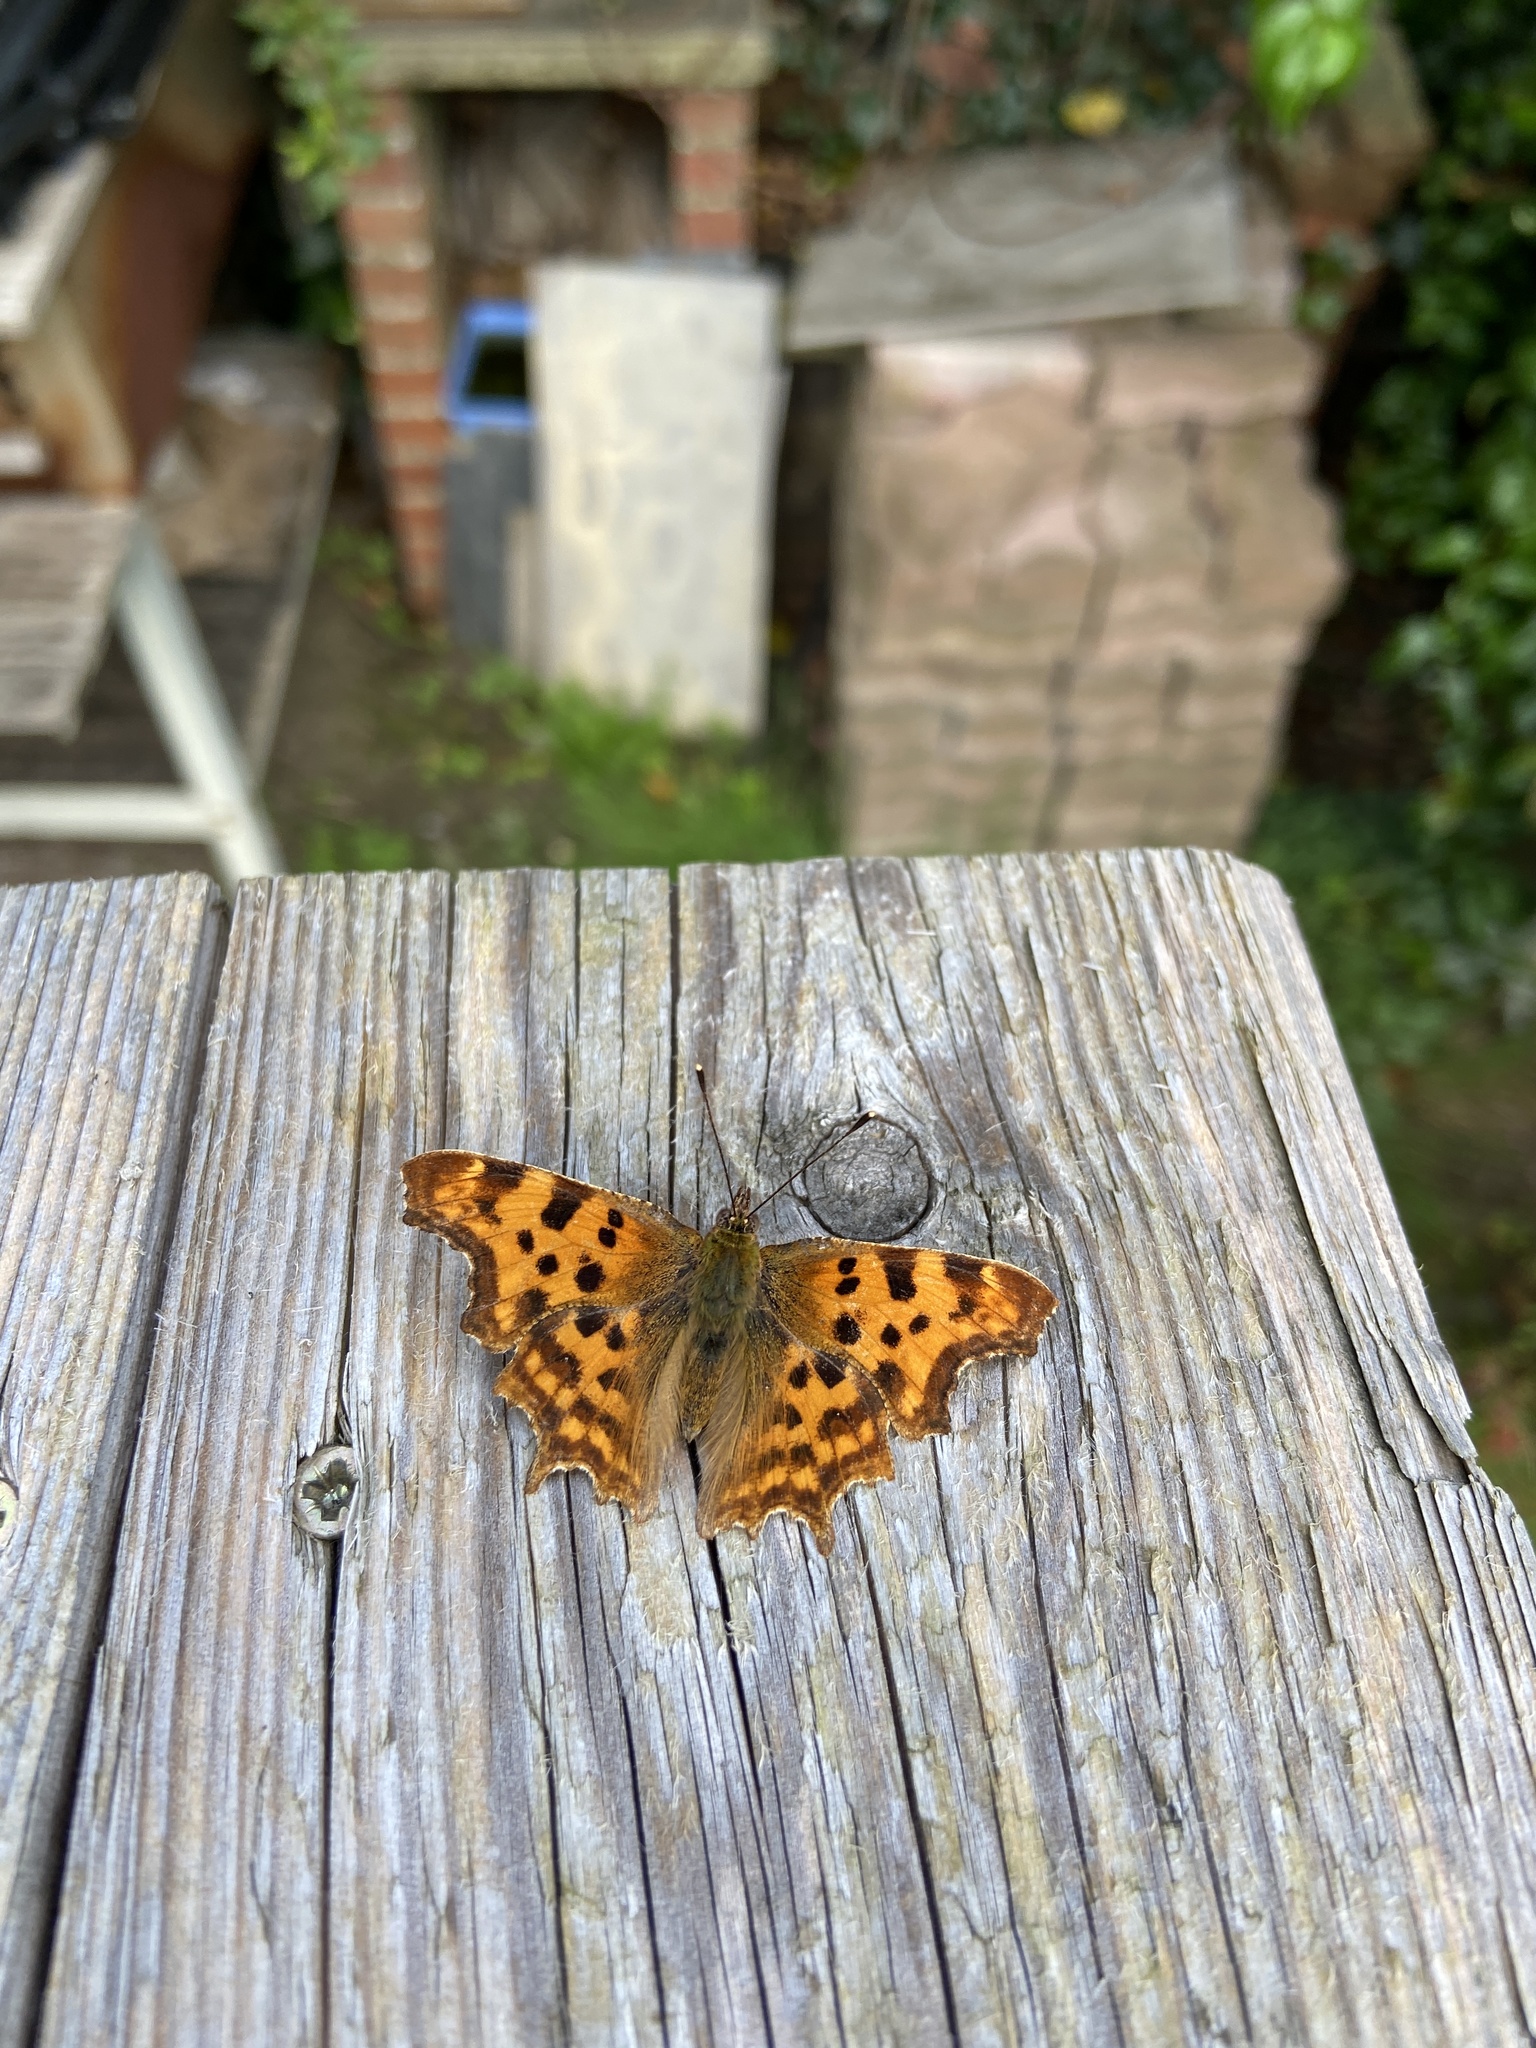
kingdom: Animalia
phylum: Arthropoda
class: Insecta
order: Lepidoptera
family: Nymphalidae
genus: Polygonia
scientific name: Polygonia c-album
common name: Comma
